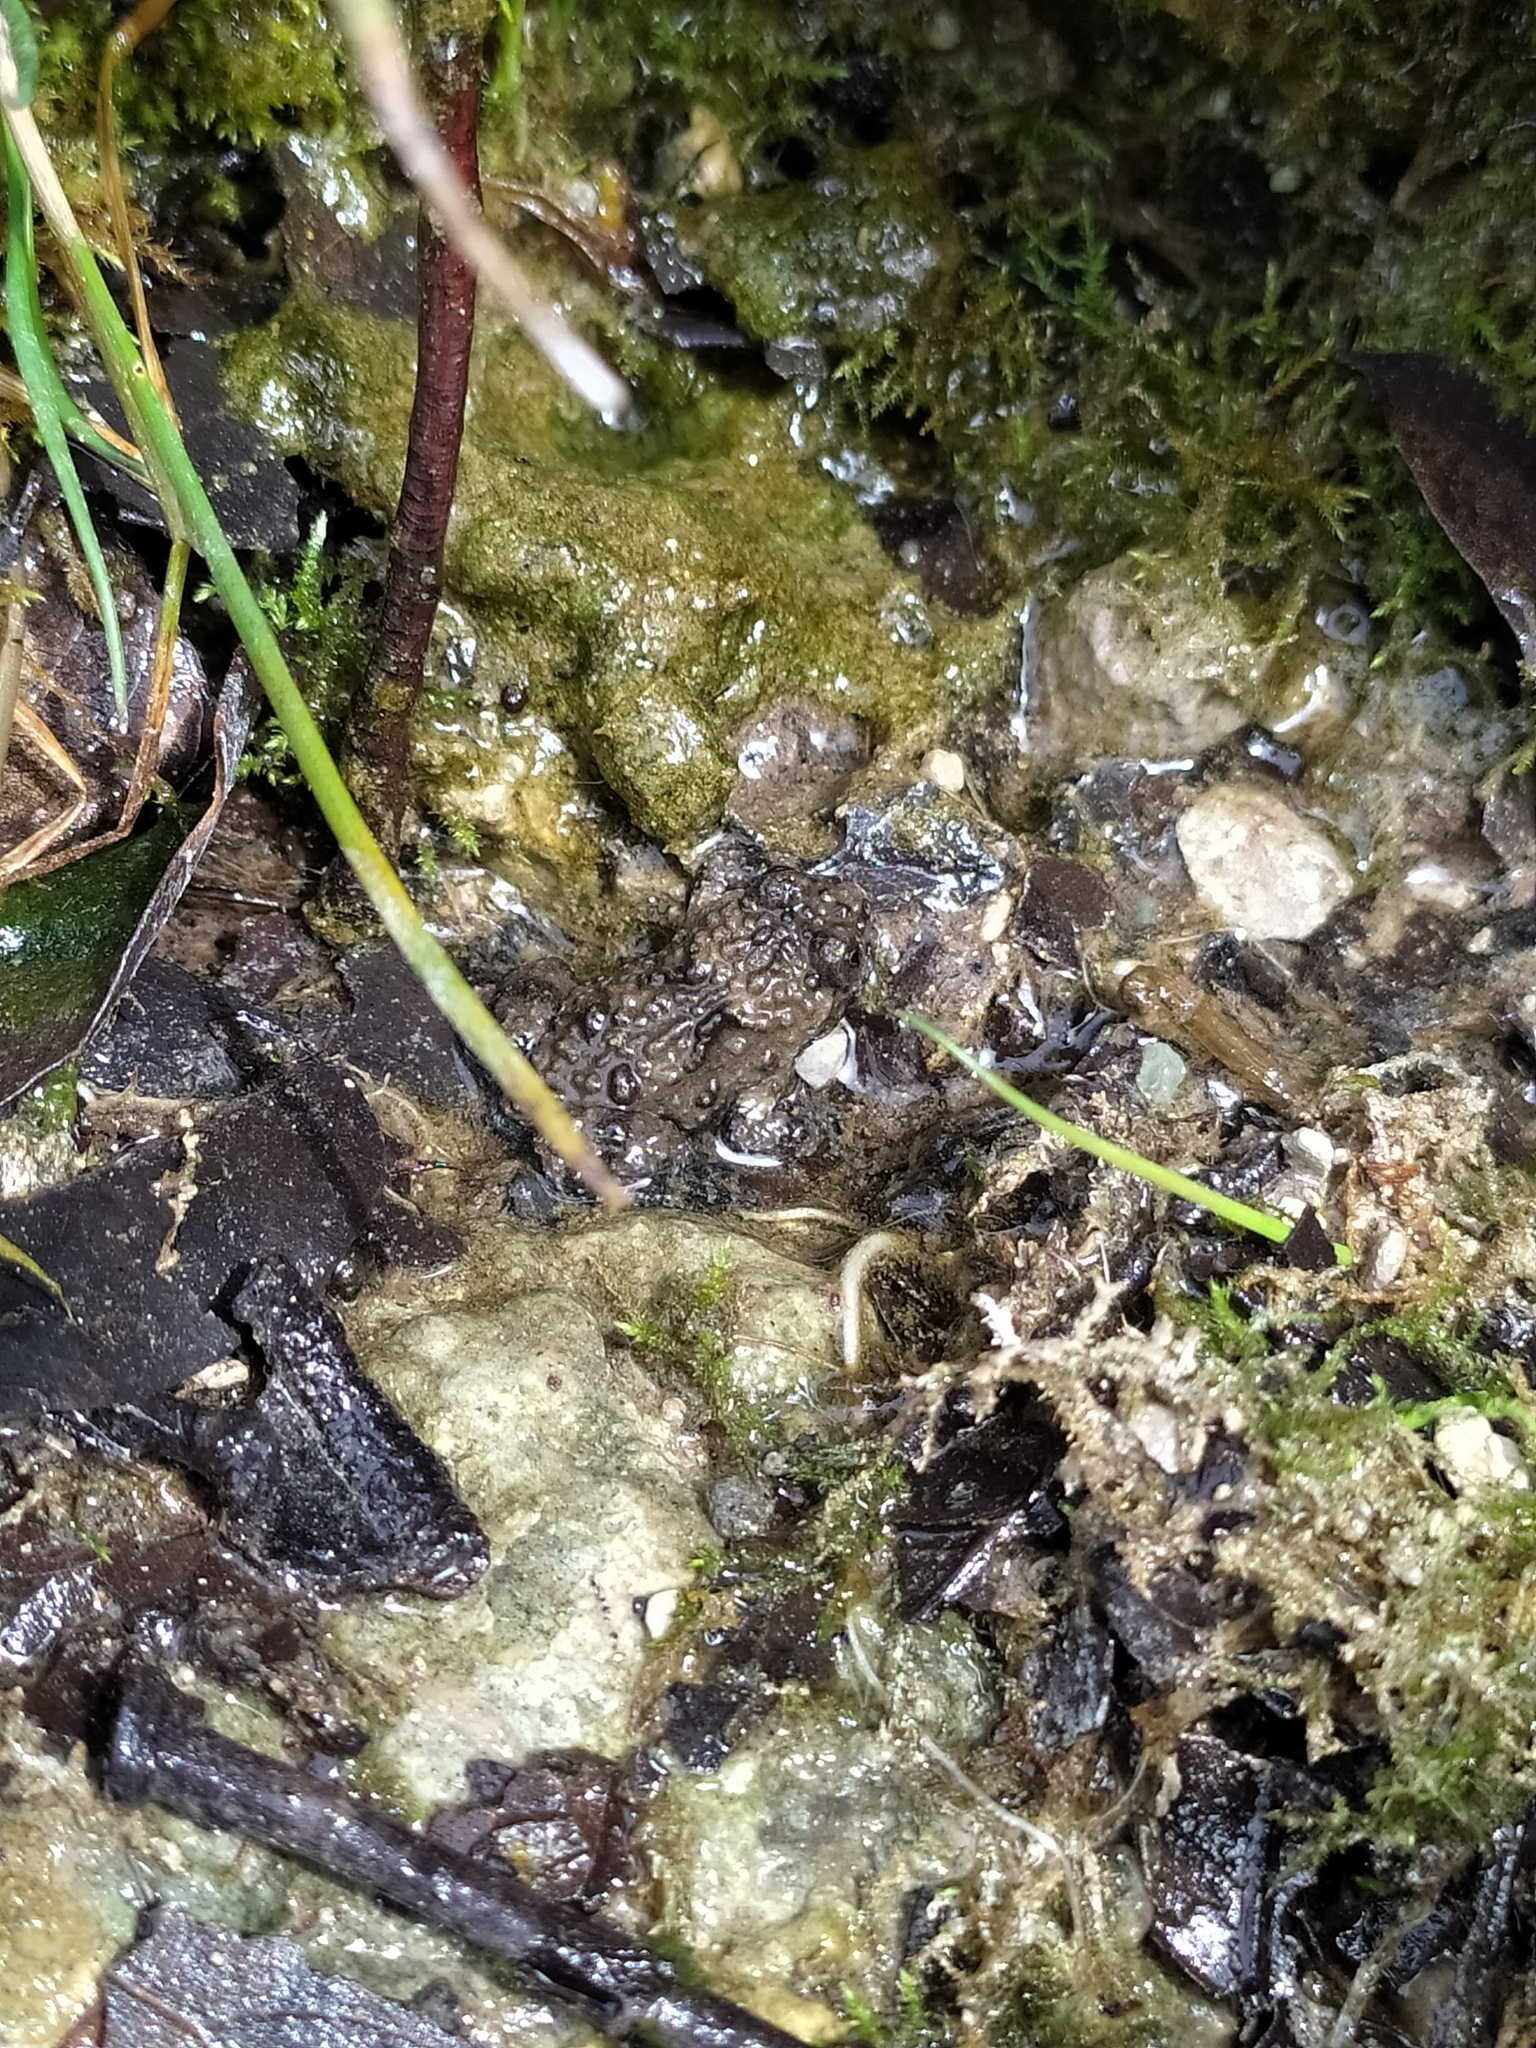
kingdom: Animalia
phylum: Chordata
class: Amphibia
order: Anura
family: Bombinatoridae
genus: Bombina
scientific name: Bombina variegata
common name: Yellow-bellied toad
